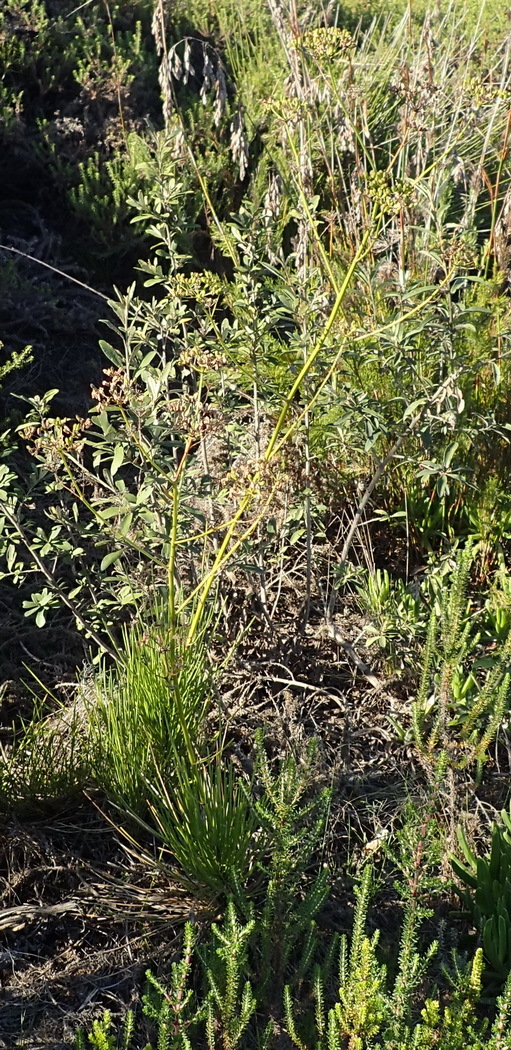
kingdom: Plantae
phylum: Tracheophyta
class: Magnoliopsida
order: Apiales
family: Apiaceae
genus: Anginon
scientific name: Anginon difforme
